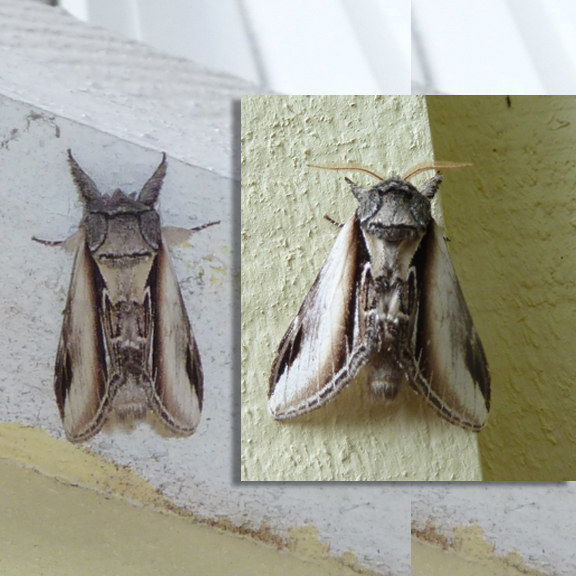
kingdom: Animalia
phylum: Arthropoda
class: Insecta
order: Lepidoptera
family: Notodontidae
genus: Pheosia
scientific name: Pheosia rimosa
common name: Black-rimmed prominent
